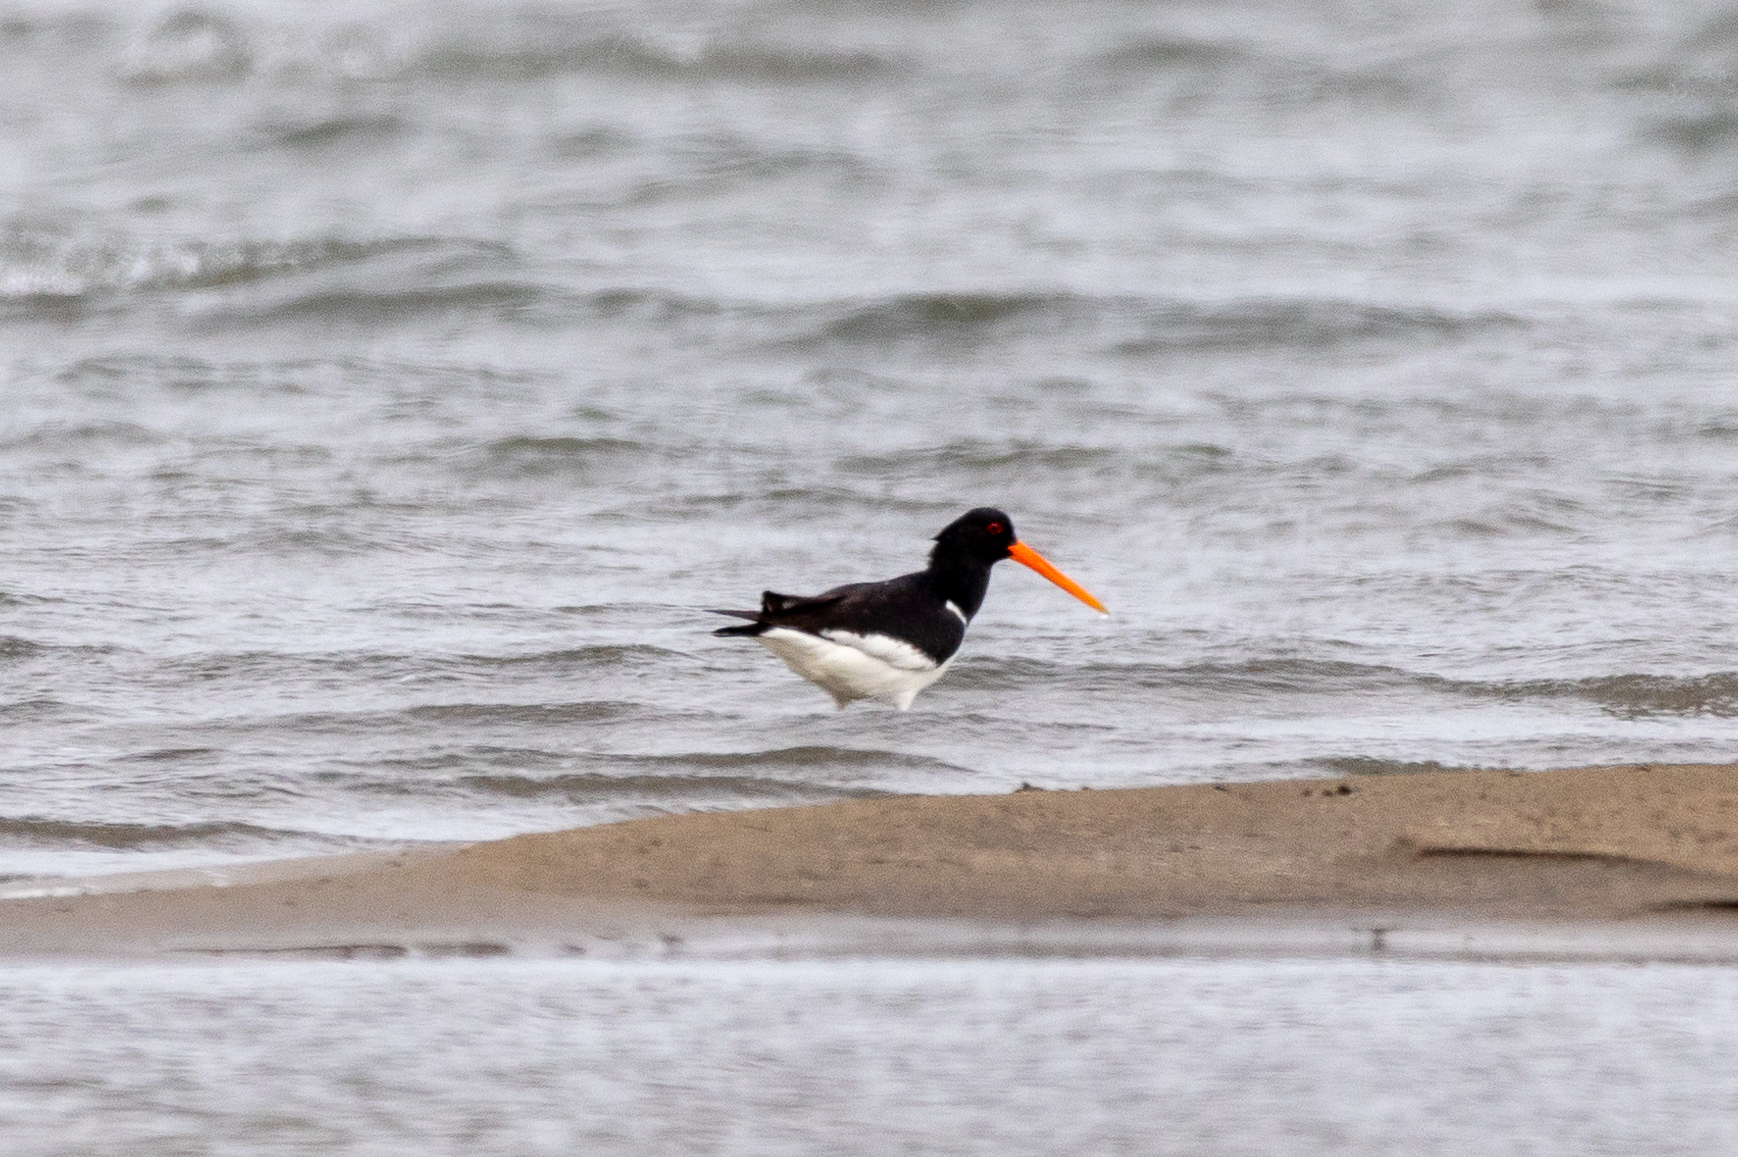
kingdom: Animalia
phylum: Chordata
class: Aves
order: Charadriiformes
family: Haematopodidae
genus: Haematopus
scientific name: Haematopus ostralegus
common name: Eurasian oystercatcher
